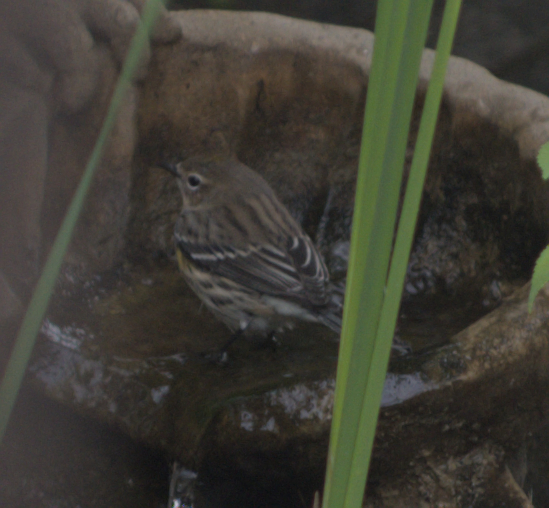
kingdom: Animalia
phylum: Chordata
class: Aves
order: Passeriformes
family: Parulidae
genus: Setophaga
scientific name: Setophaga coronata
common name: Myrtle warbler
